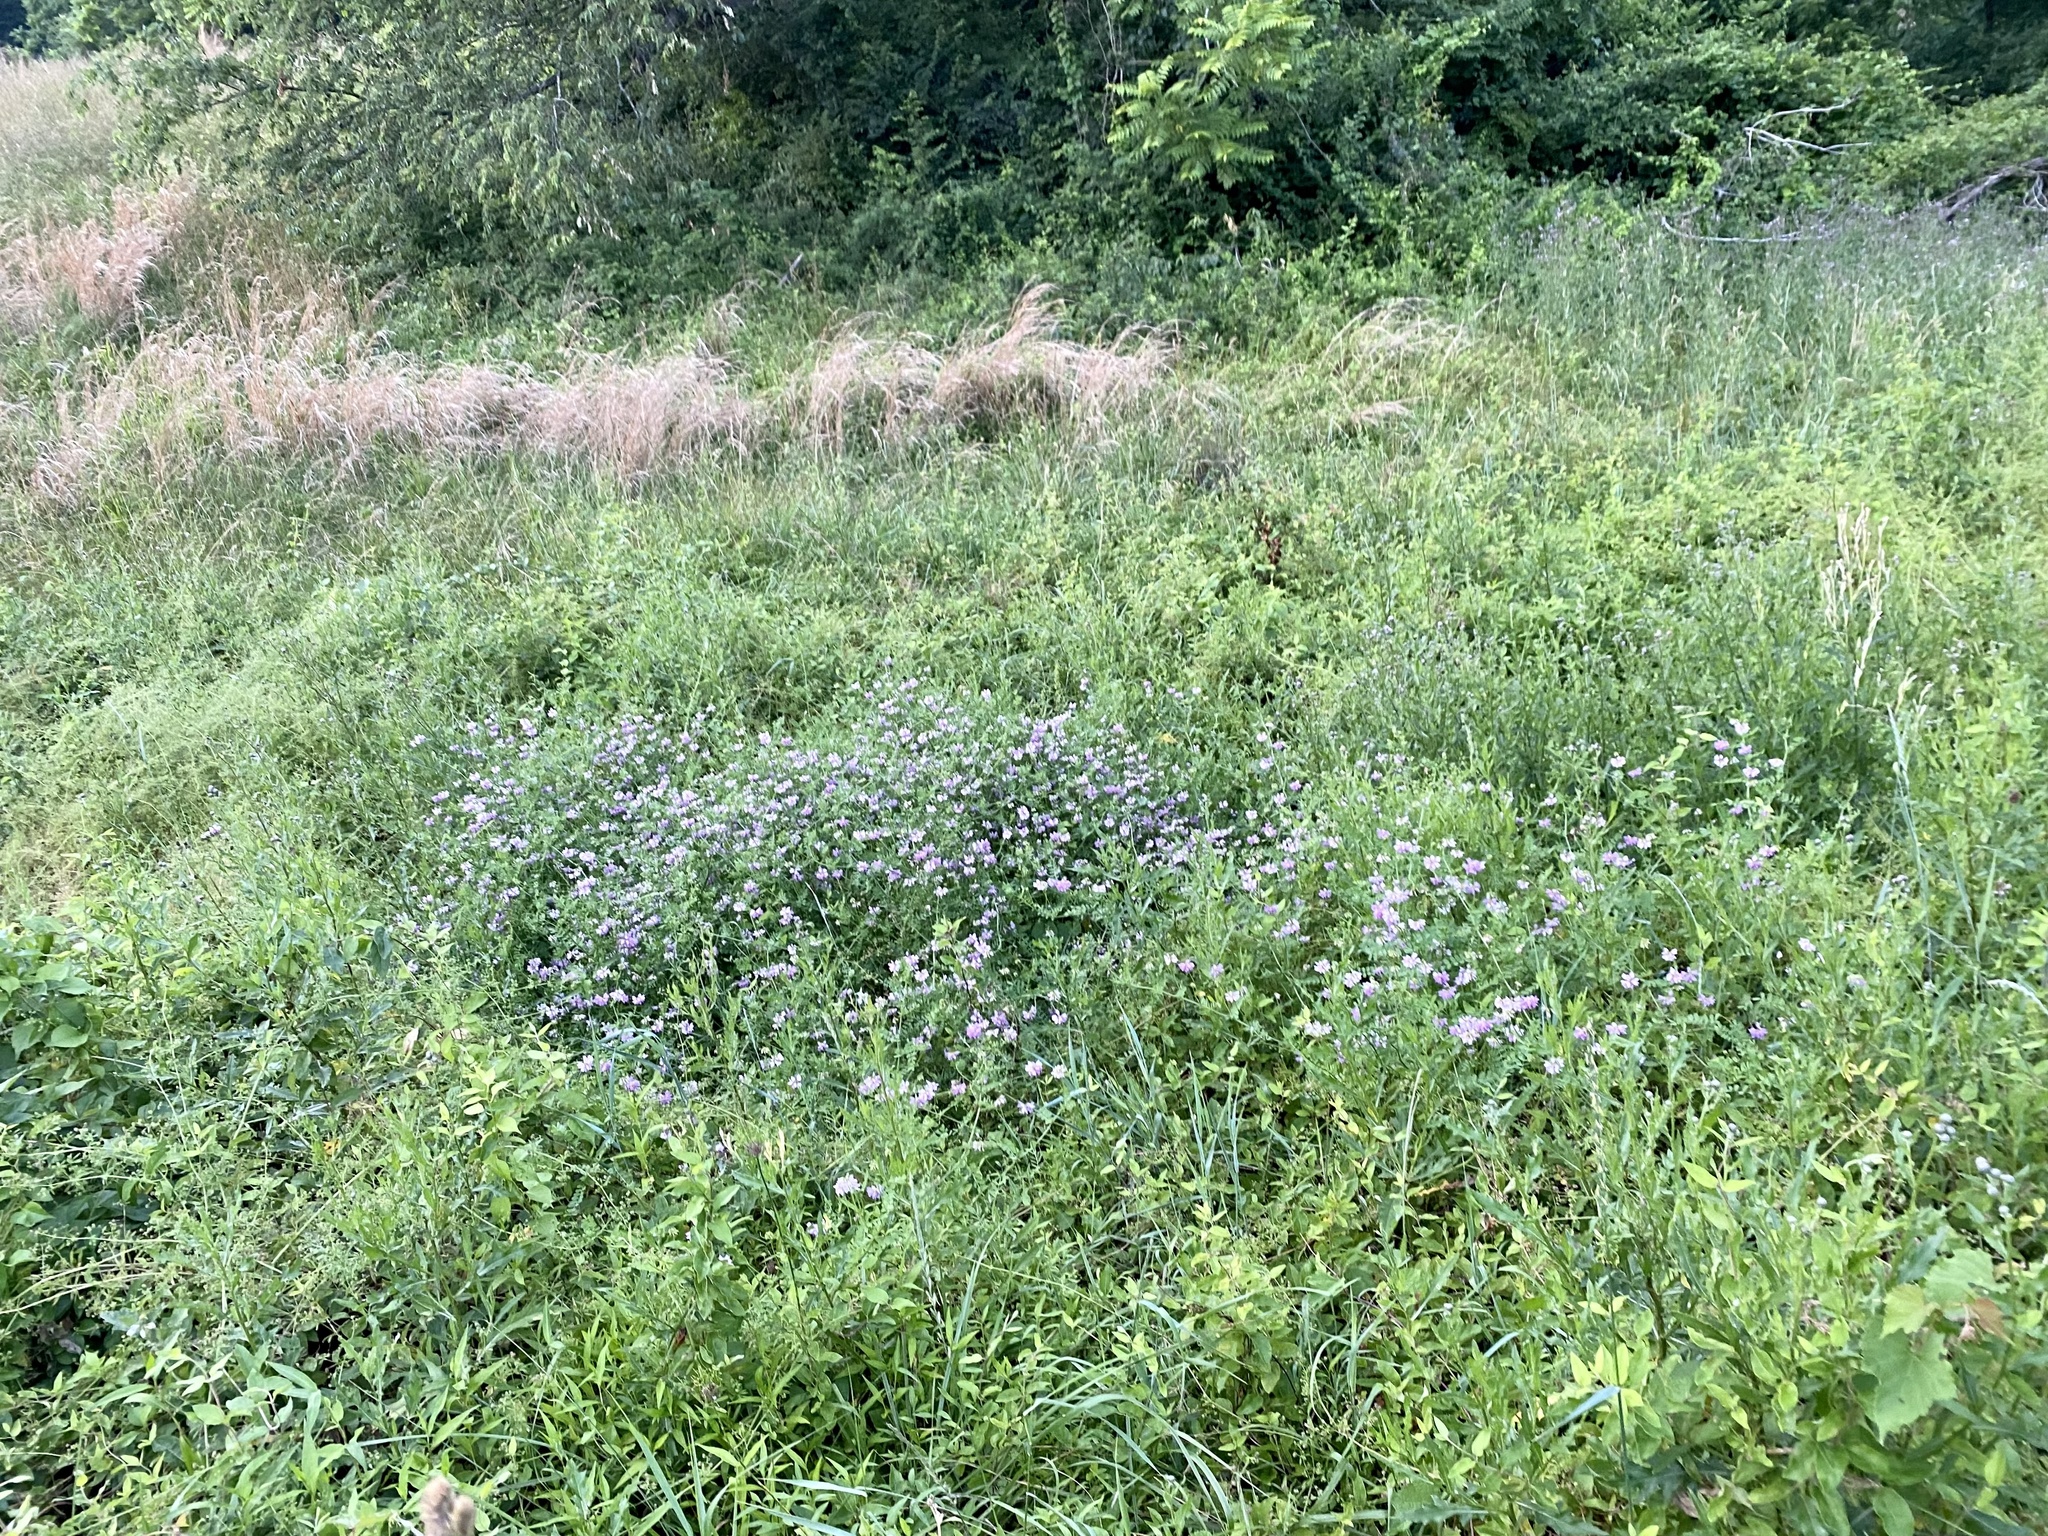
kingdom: Plantae
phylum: Tracheophyta
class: Magnoliopsida
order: Fabales
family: Fabaceae
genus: Coronilla
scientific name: Coronilla varia
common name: Crownvetch
